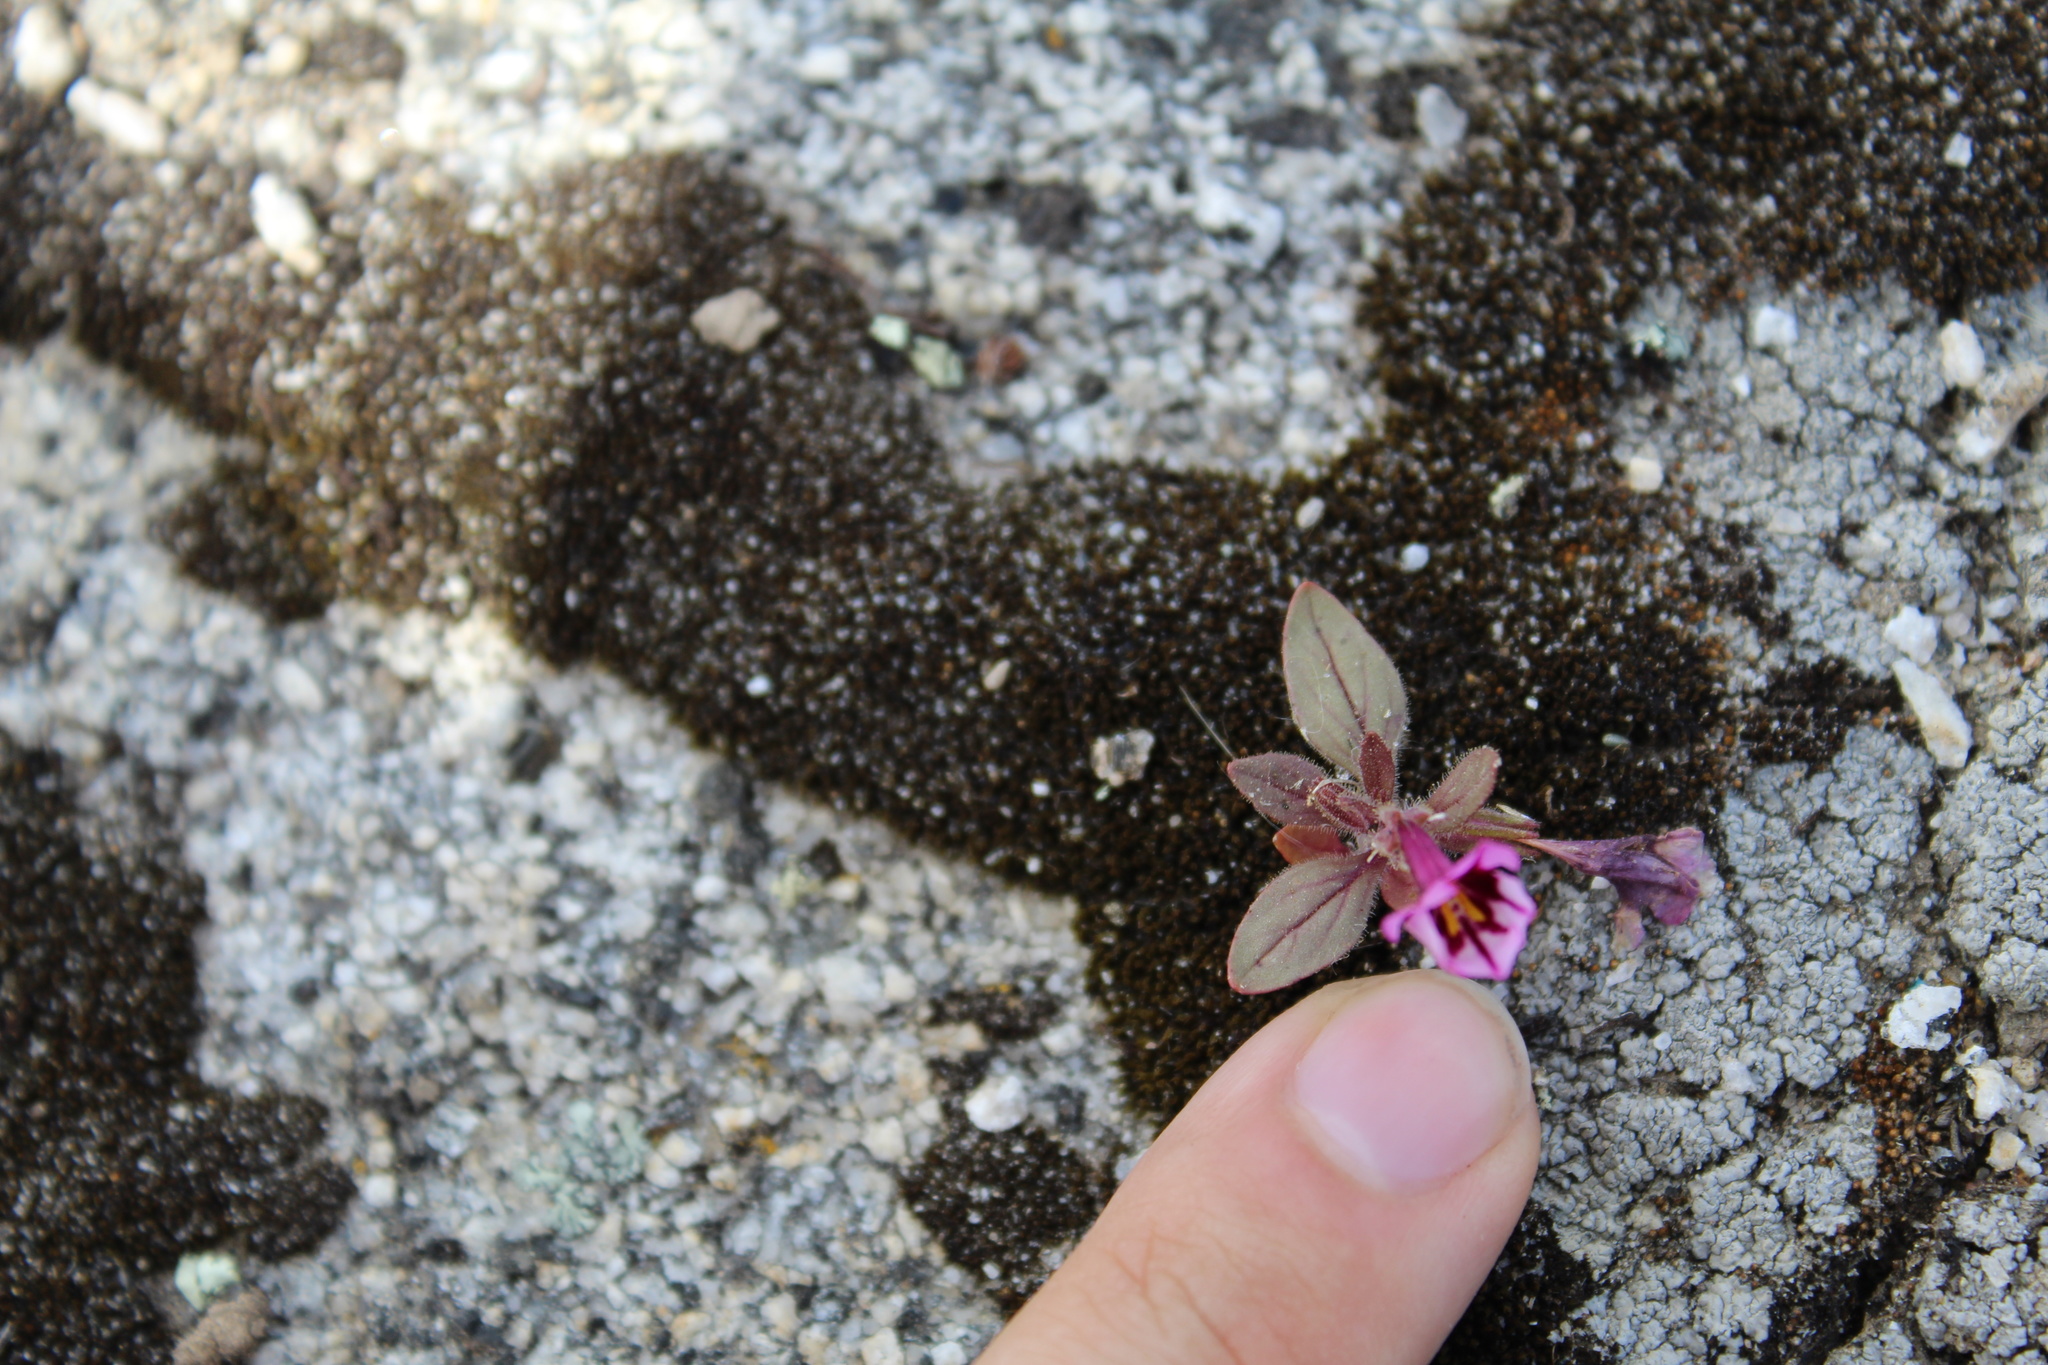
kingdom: Plantae
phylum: Tracheophyta
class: Magnoliopsida
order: Lamiales
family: Phrymaceae
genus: Diplacus
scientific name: Diplacus graniticola
